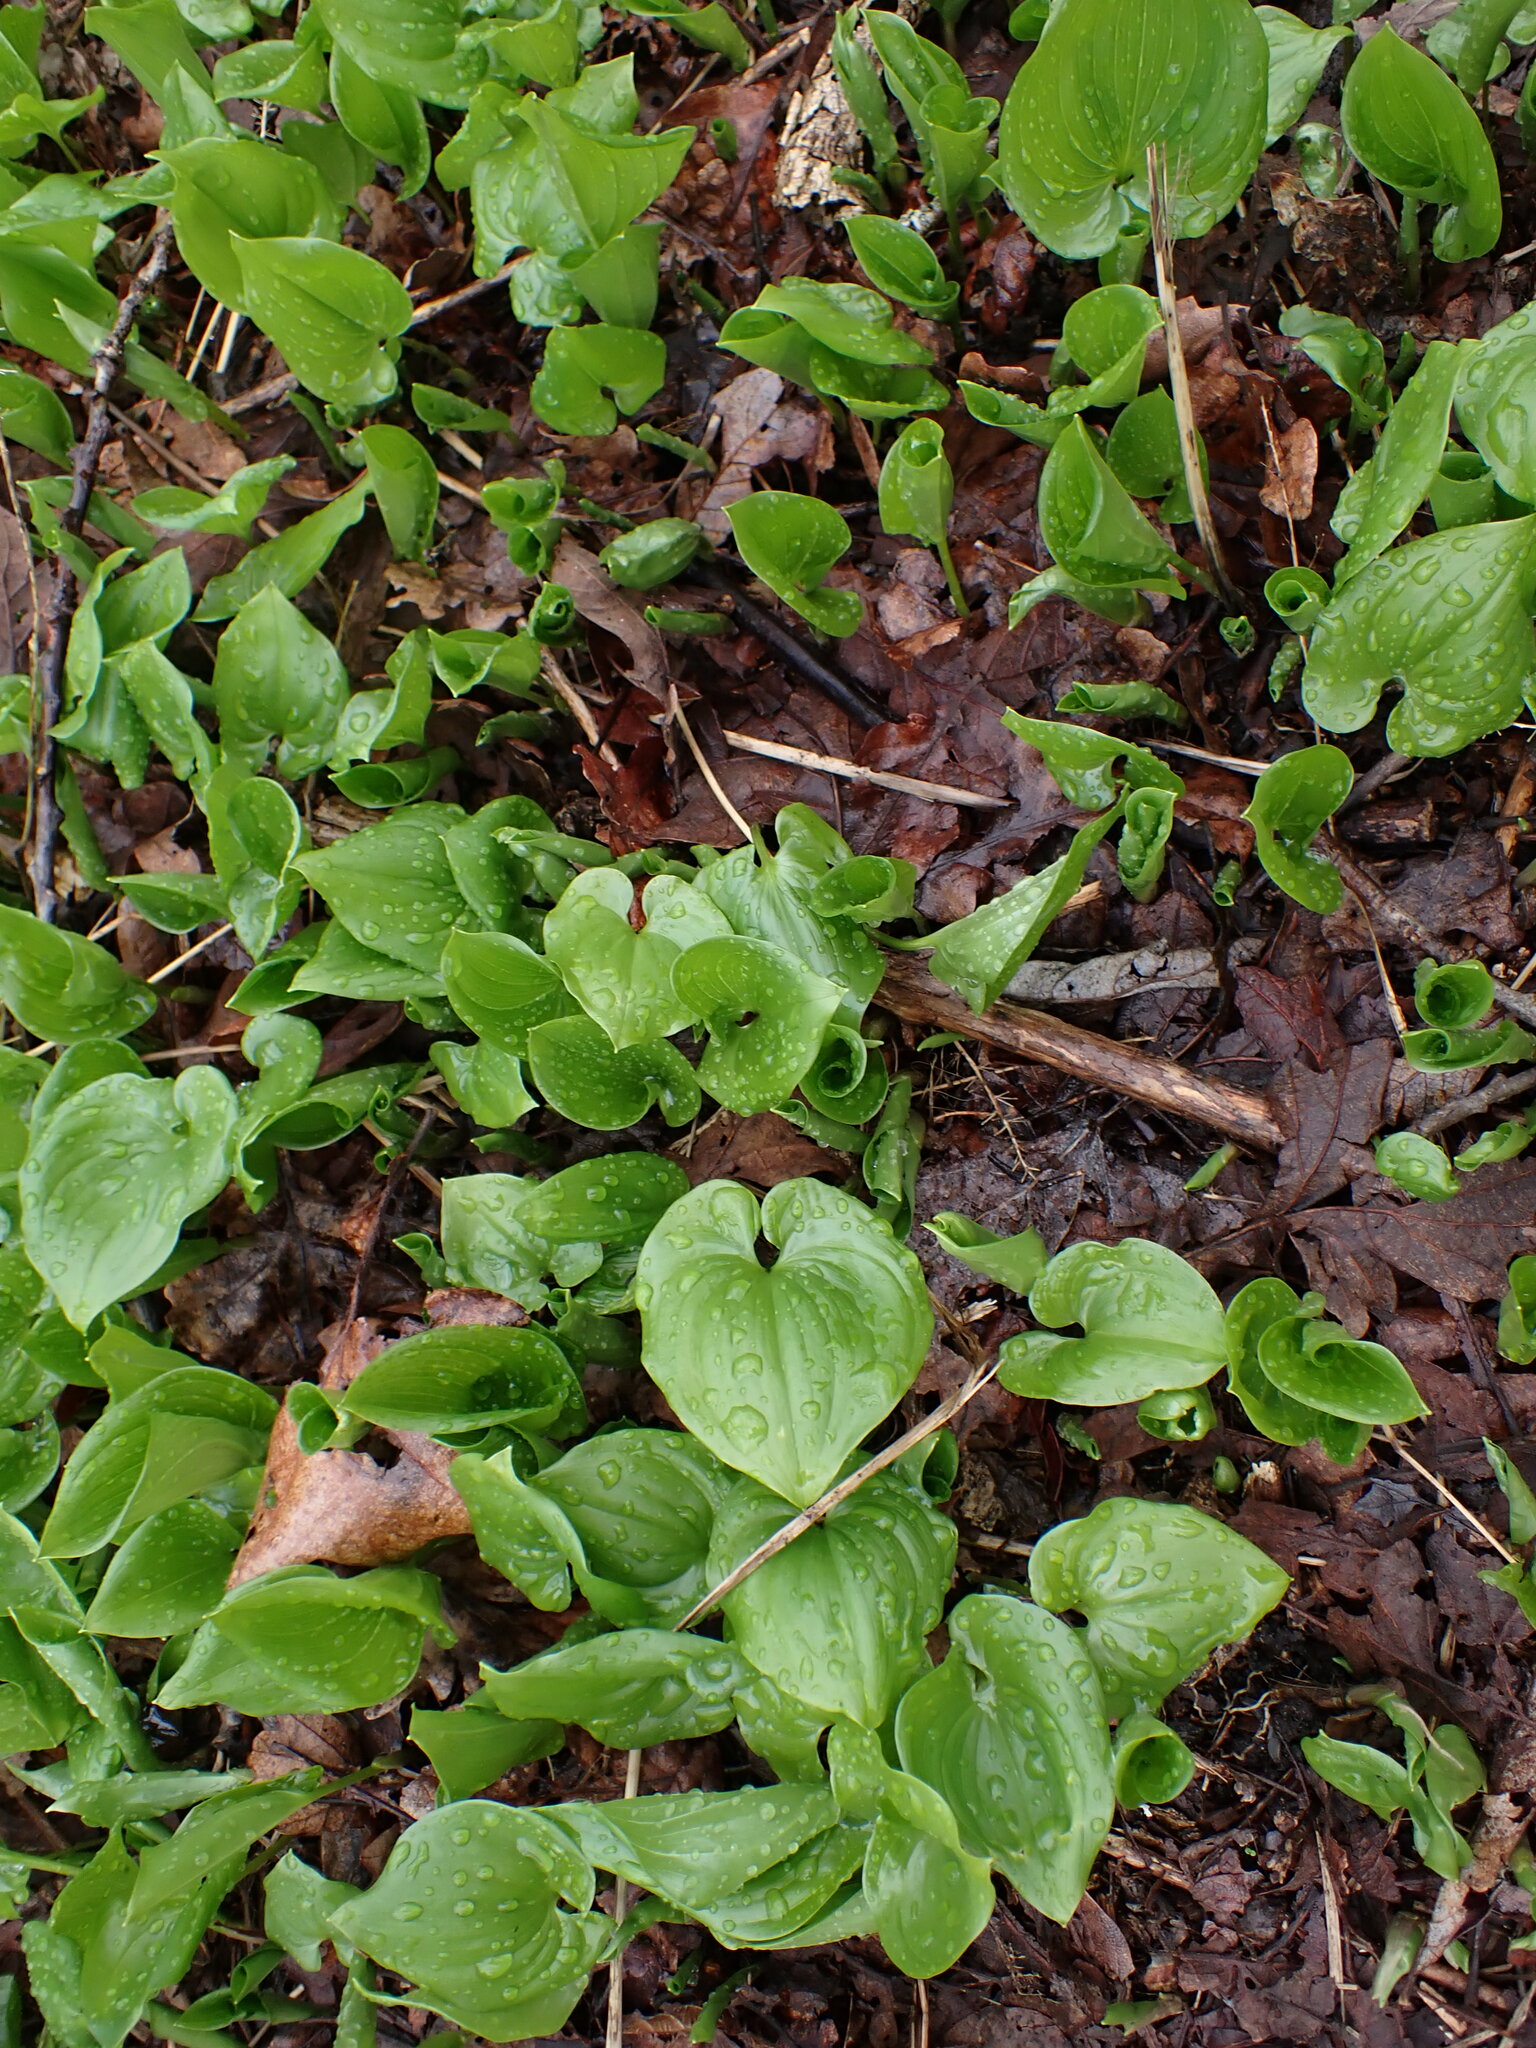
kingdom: Plantae
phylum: Tracheophyta
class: Liliopsida
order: Asparagales
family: Asparagaceae
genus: Maianthemum
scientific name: Maianthemum dilatatum
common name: False lily-of-the-valley
